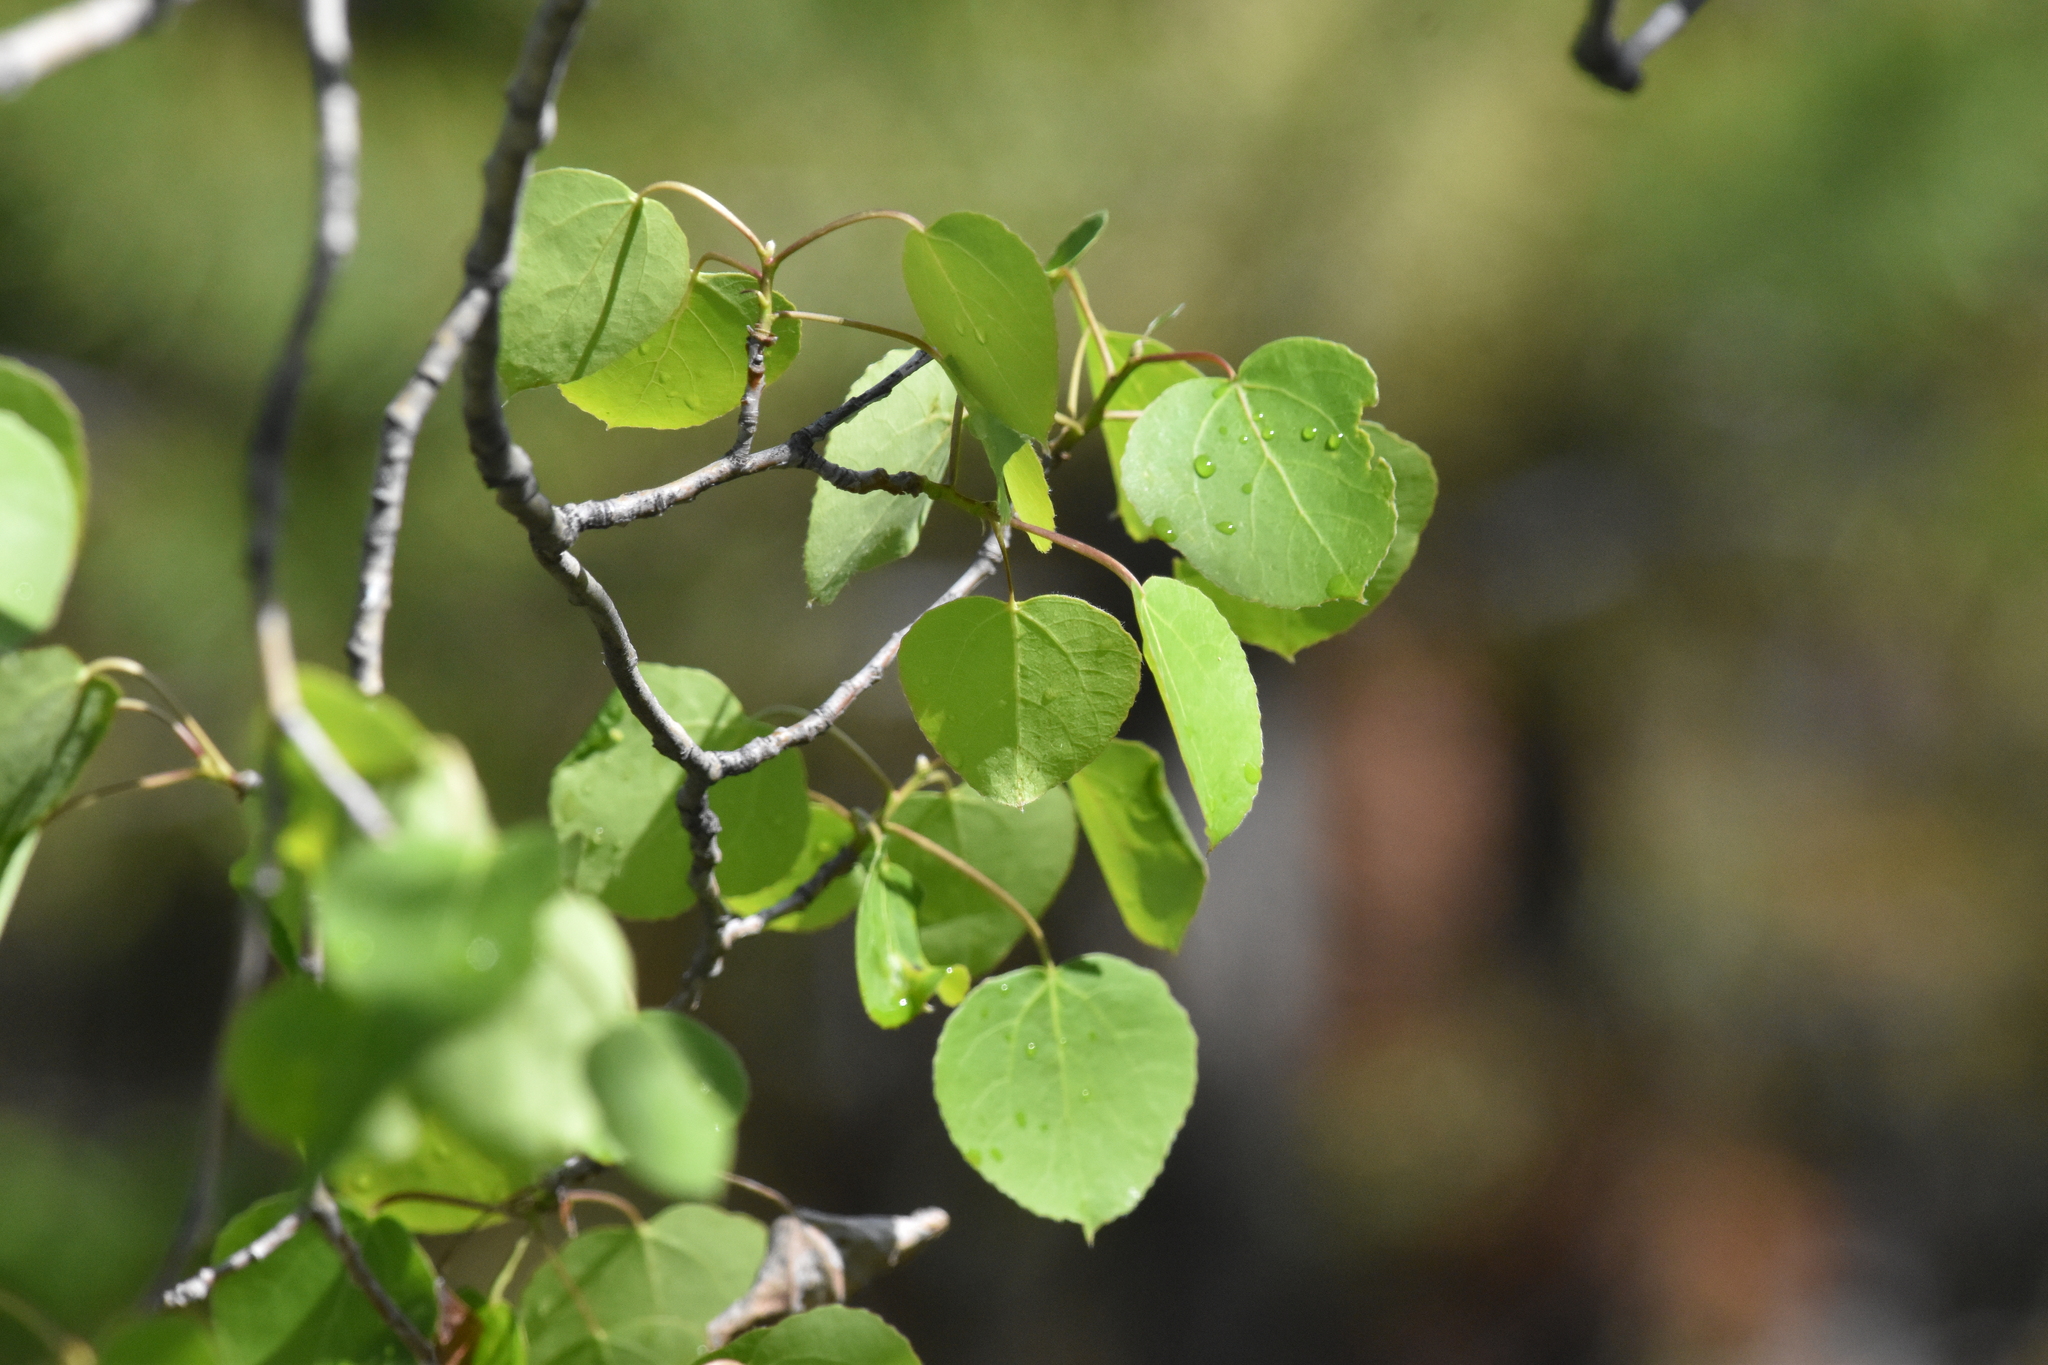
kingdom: Plantae
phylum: Tracheophyta
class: Magnoliopsida
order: Malpighiales
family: Salicaceae
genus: Populus
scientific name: Populus tremuloides
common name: Quaking aspen
